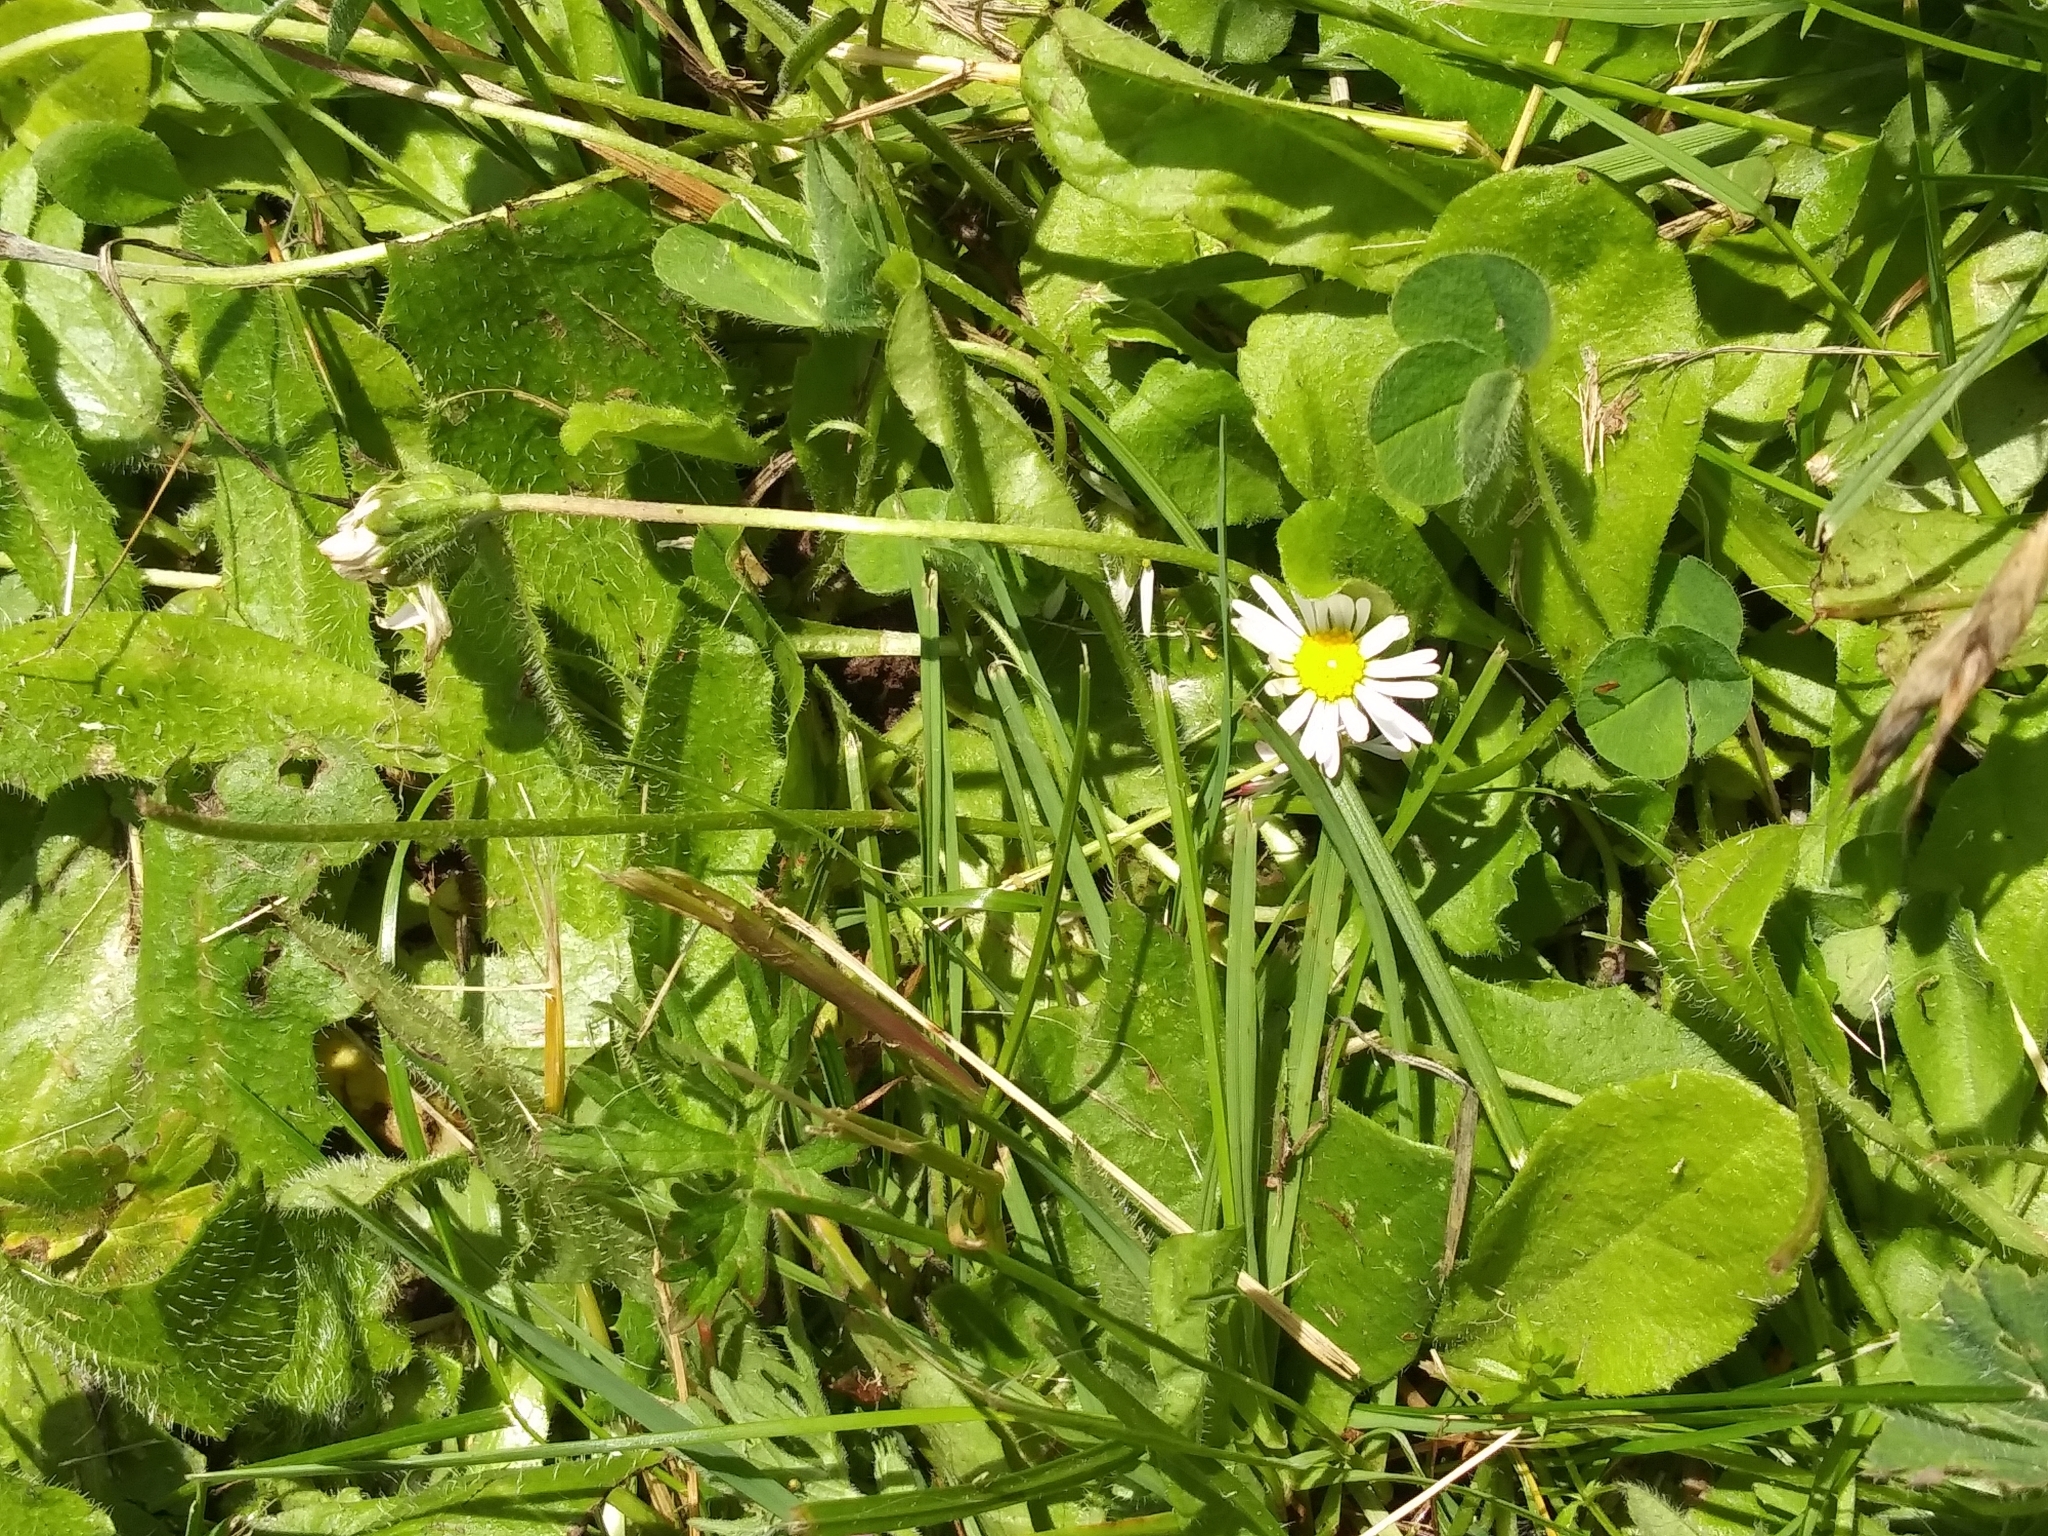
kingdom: Plantae
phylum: Tracheophyta
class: Magnoliopsida
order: Asterales
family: Asteraceae
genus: Bellis
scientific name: Bellis perennis
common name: Lawndaisy
